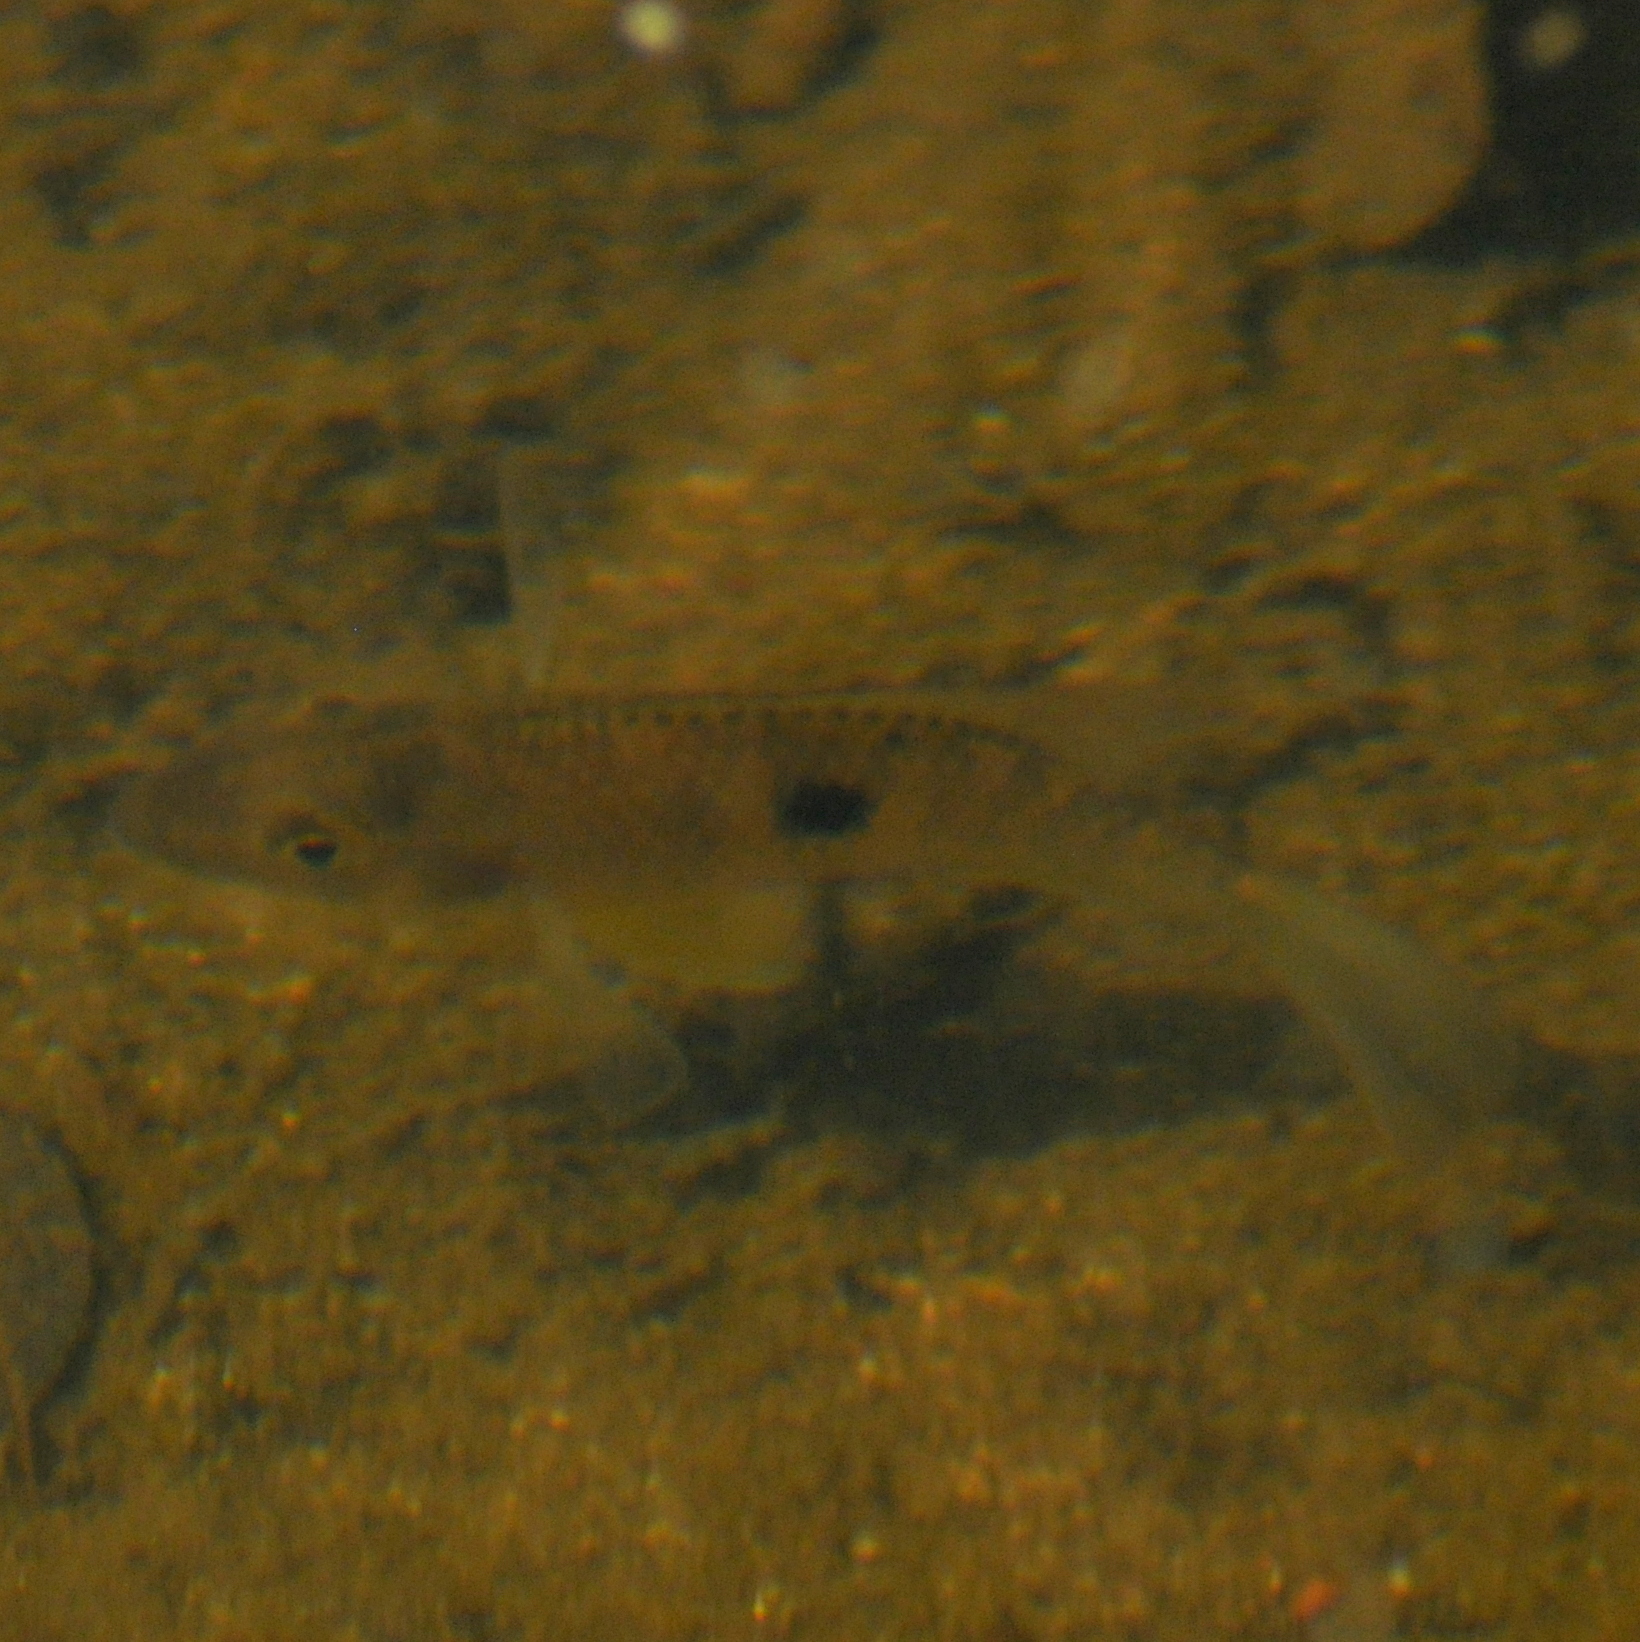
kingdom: Animalia
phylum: Chordata
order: Perciformes
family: Cichlidae
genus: Geophagus
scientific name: Geophagus brasiliensis
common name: Braziliensis
